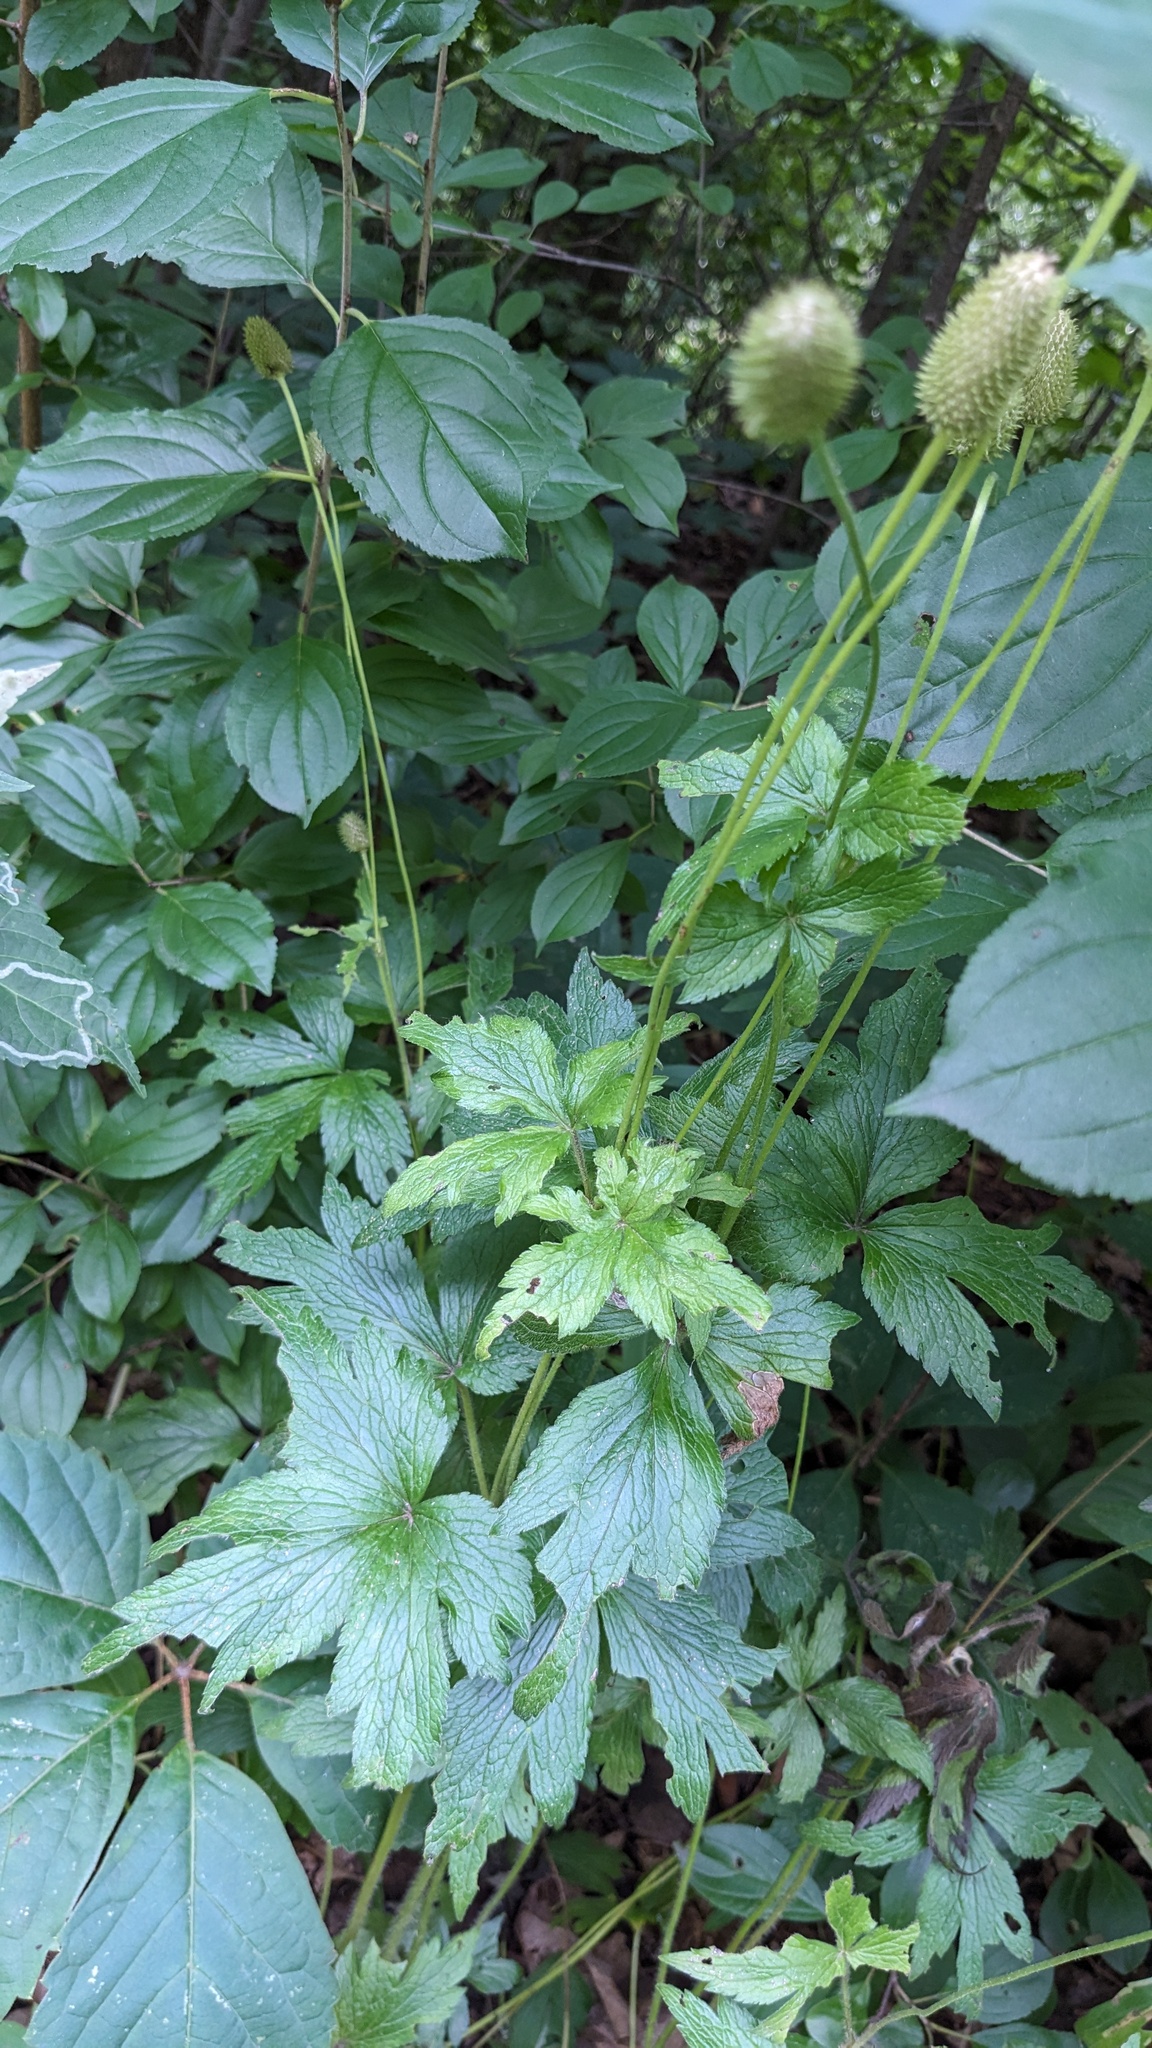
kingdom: Plantae
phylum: Tracheophyta
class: Magnoliopsida
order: Ranunculales
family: Ranunculaceae
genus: Anemone
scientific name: Anemone virginiana
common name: Tall anemone
